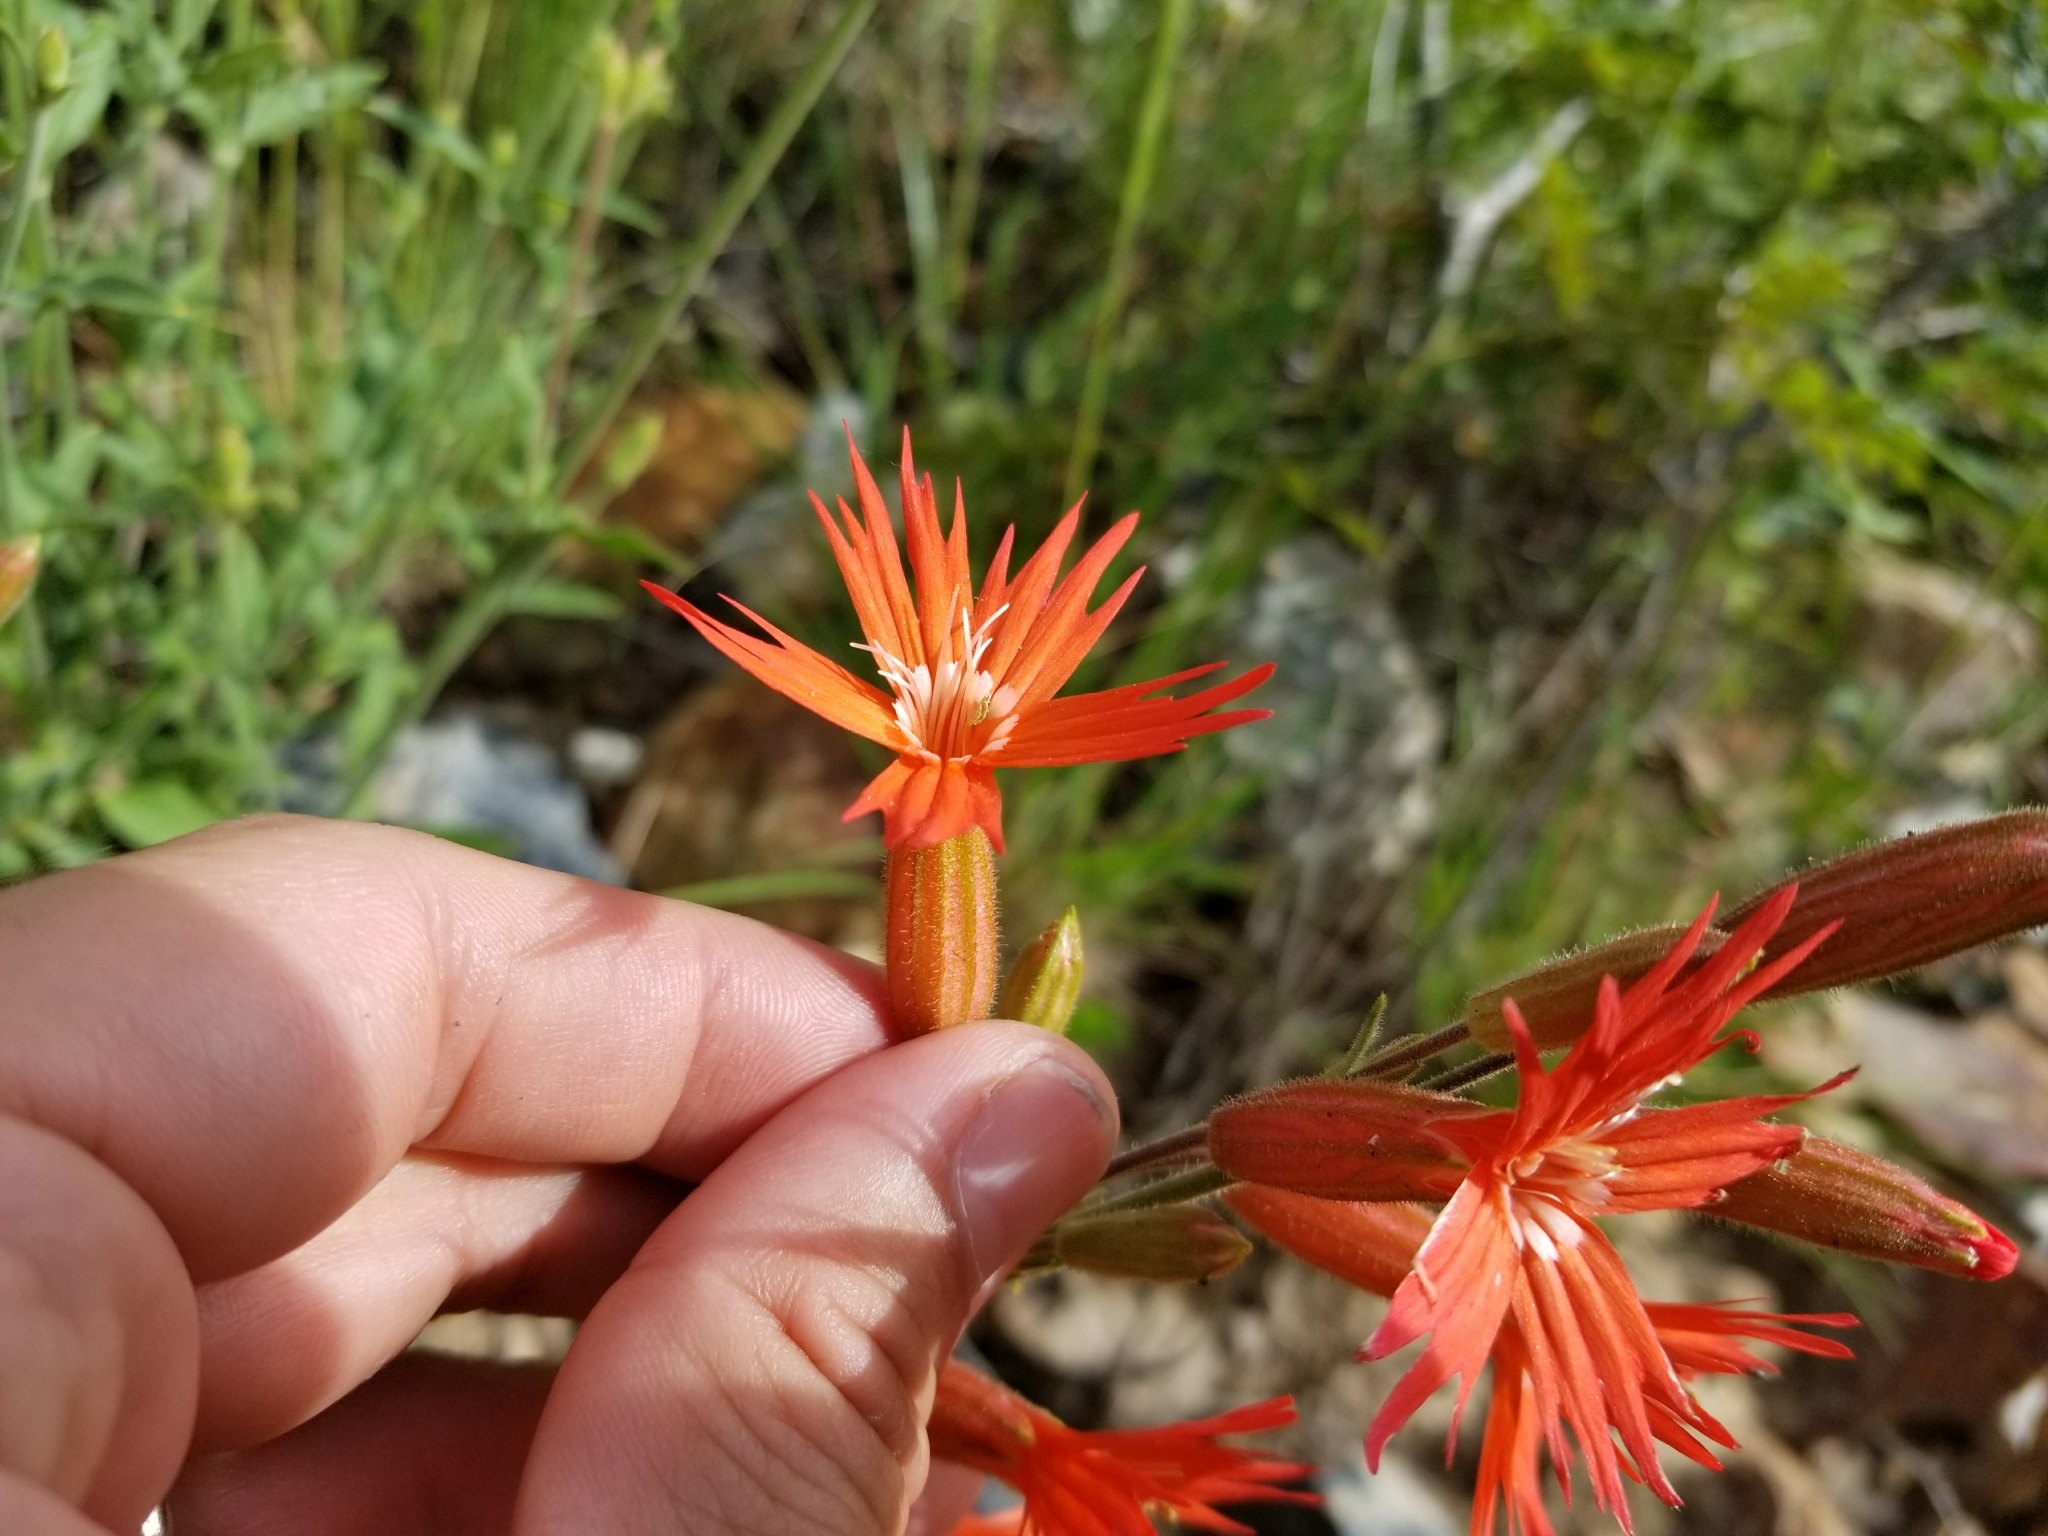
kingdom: Plantae
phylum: Tracheophyta
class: Magnoliopsida
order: Caryophyllales
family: Caryophyllaceae
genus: Silene
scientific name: Silene laciniata
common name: Indian-pink
